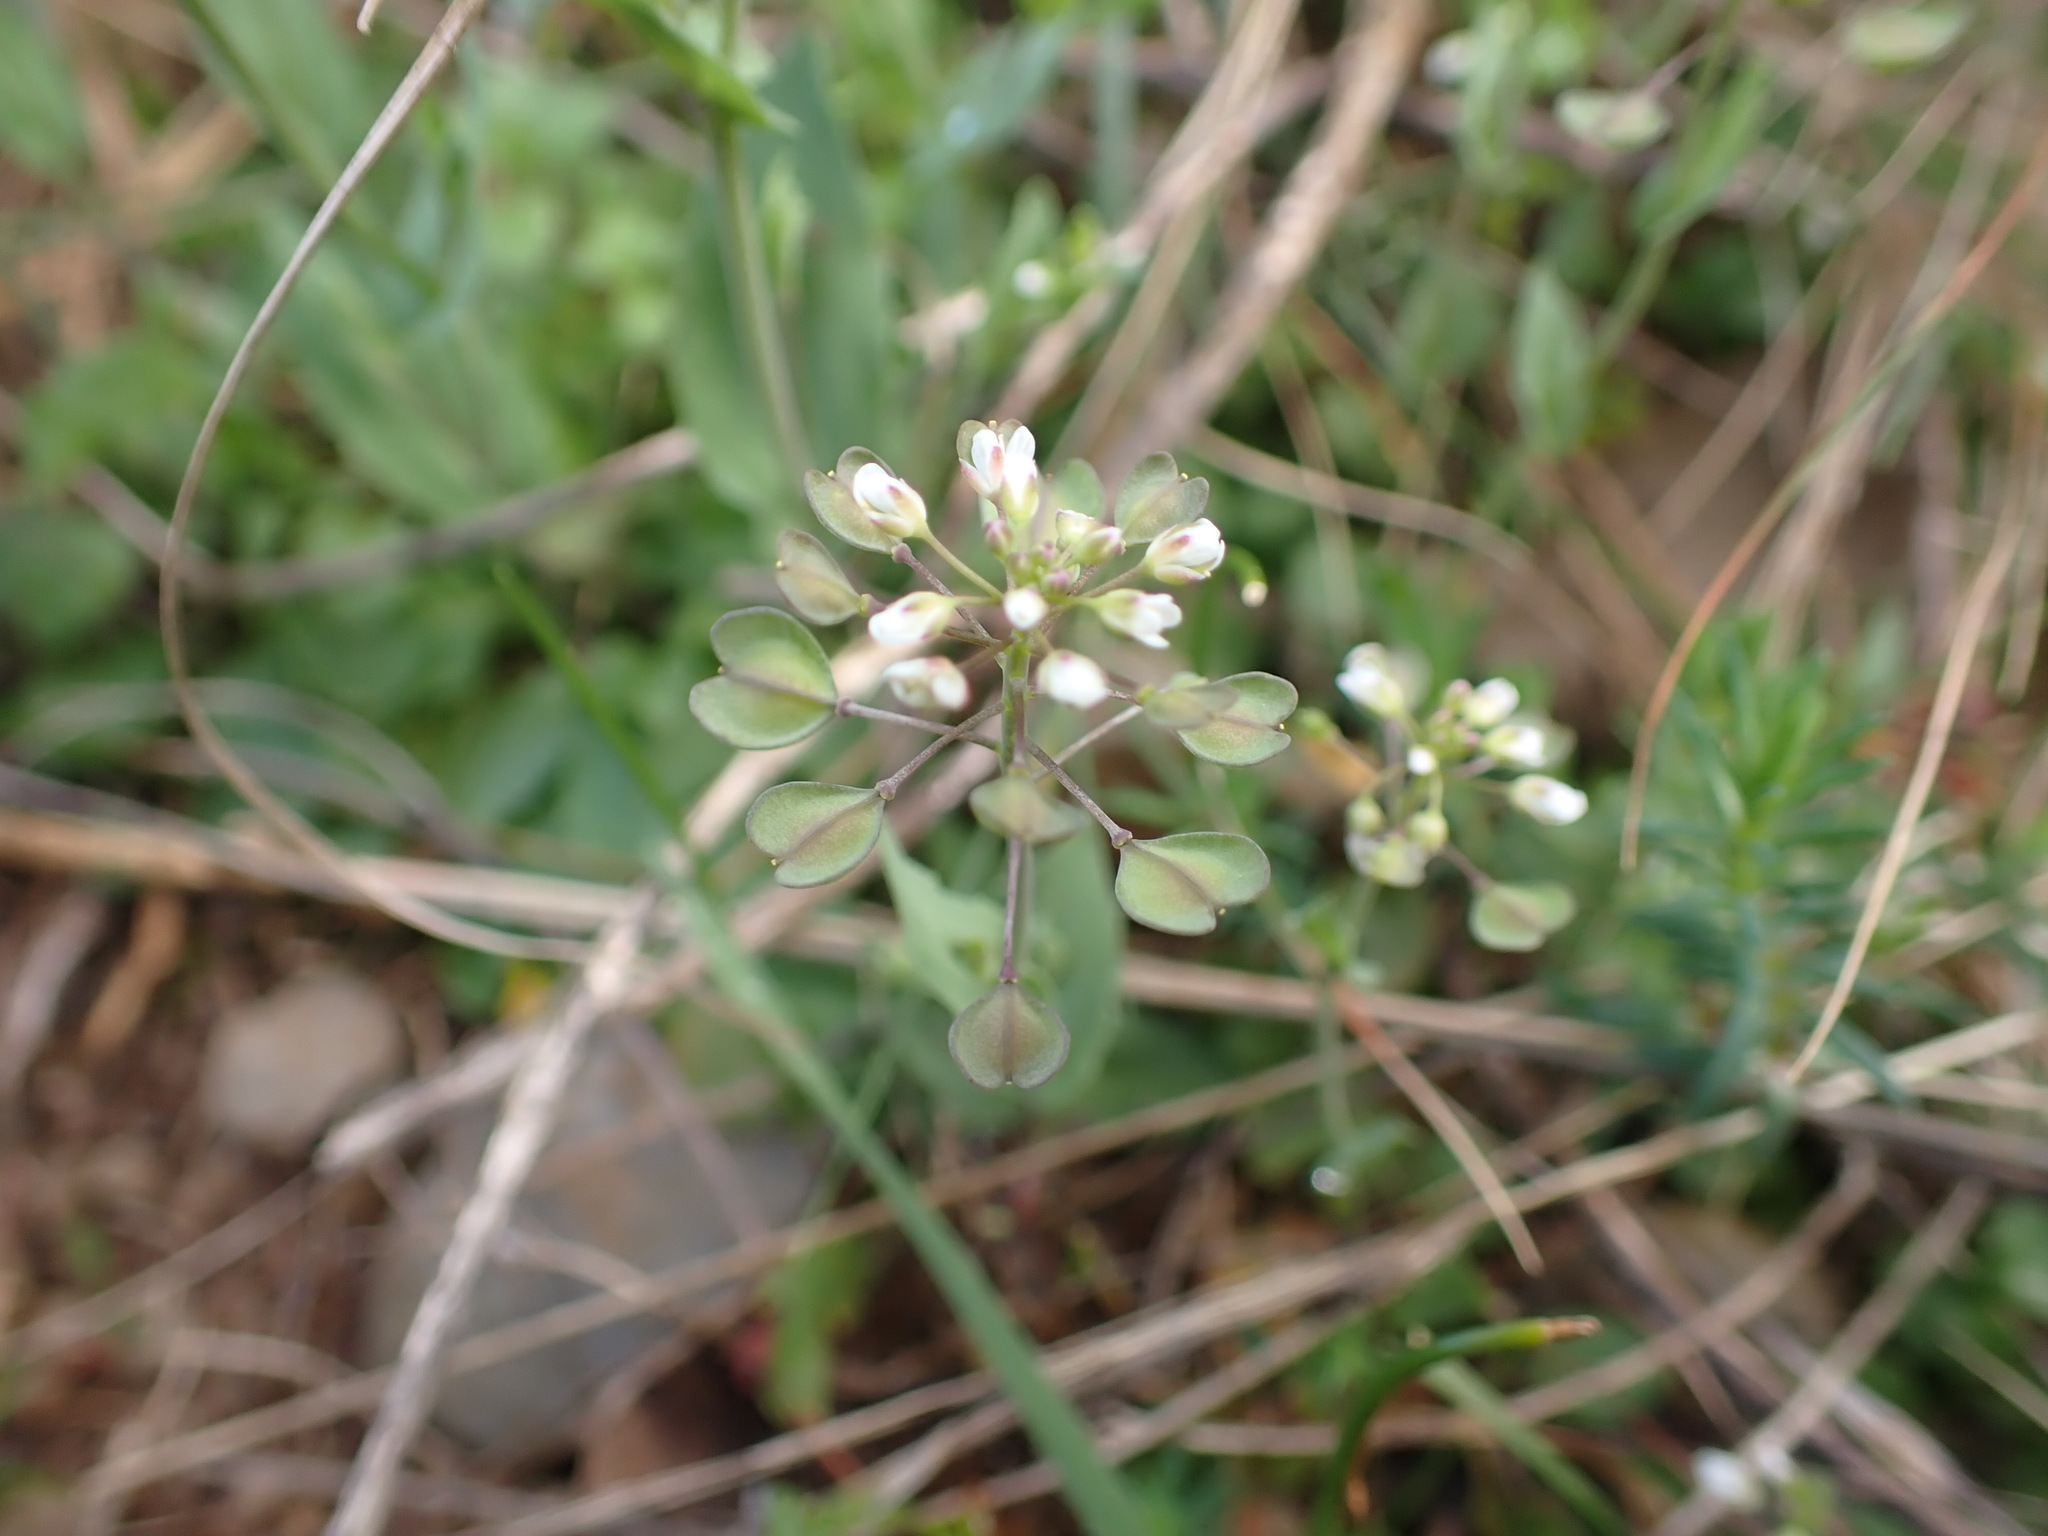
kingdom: Plantae
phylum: Tracheophyta
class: Magnoliopsida
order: Brassicales
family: Brassicaceae
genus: Noccaea
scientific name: Noccaea perfoliata
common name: Perfoliate pennycress
